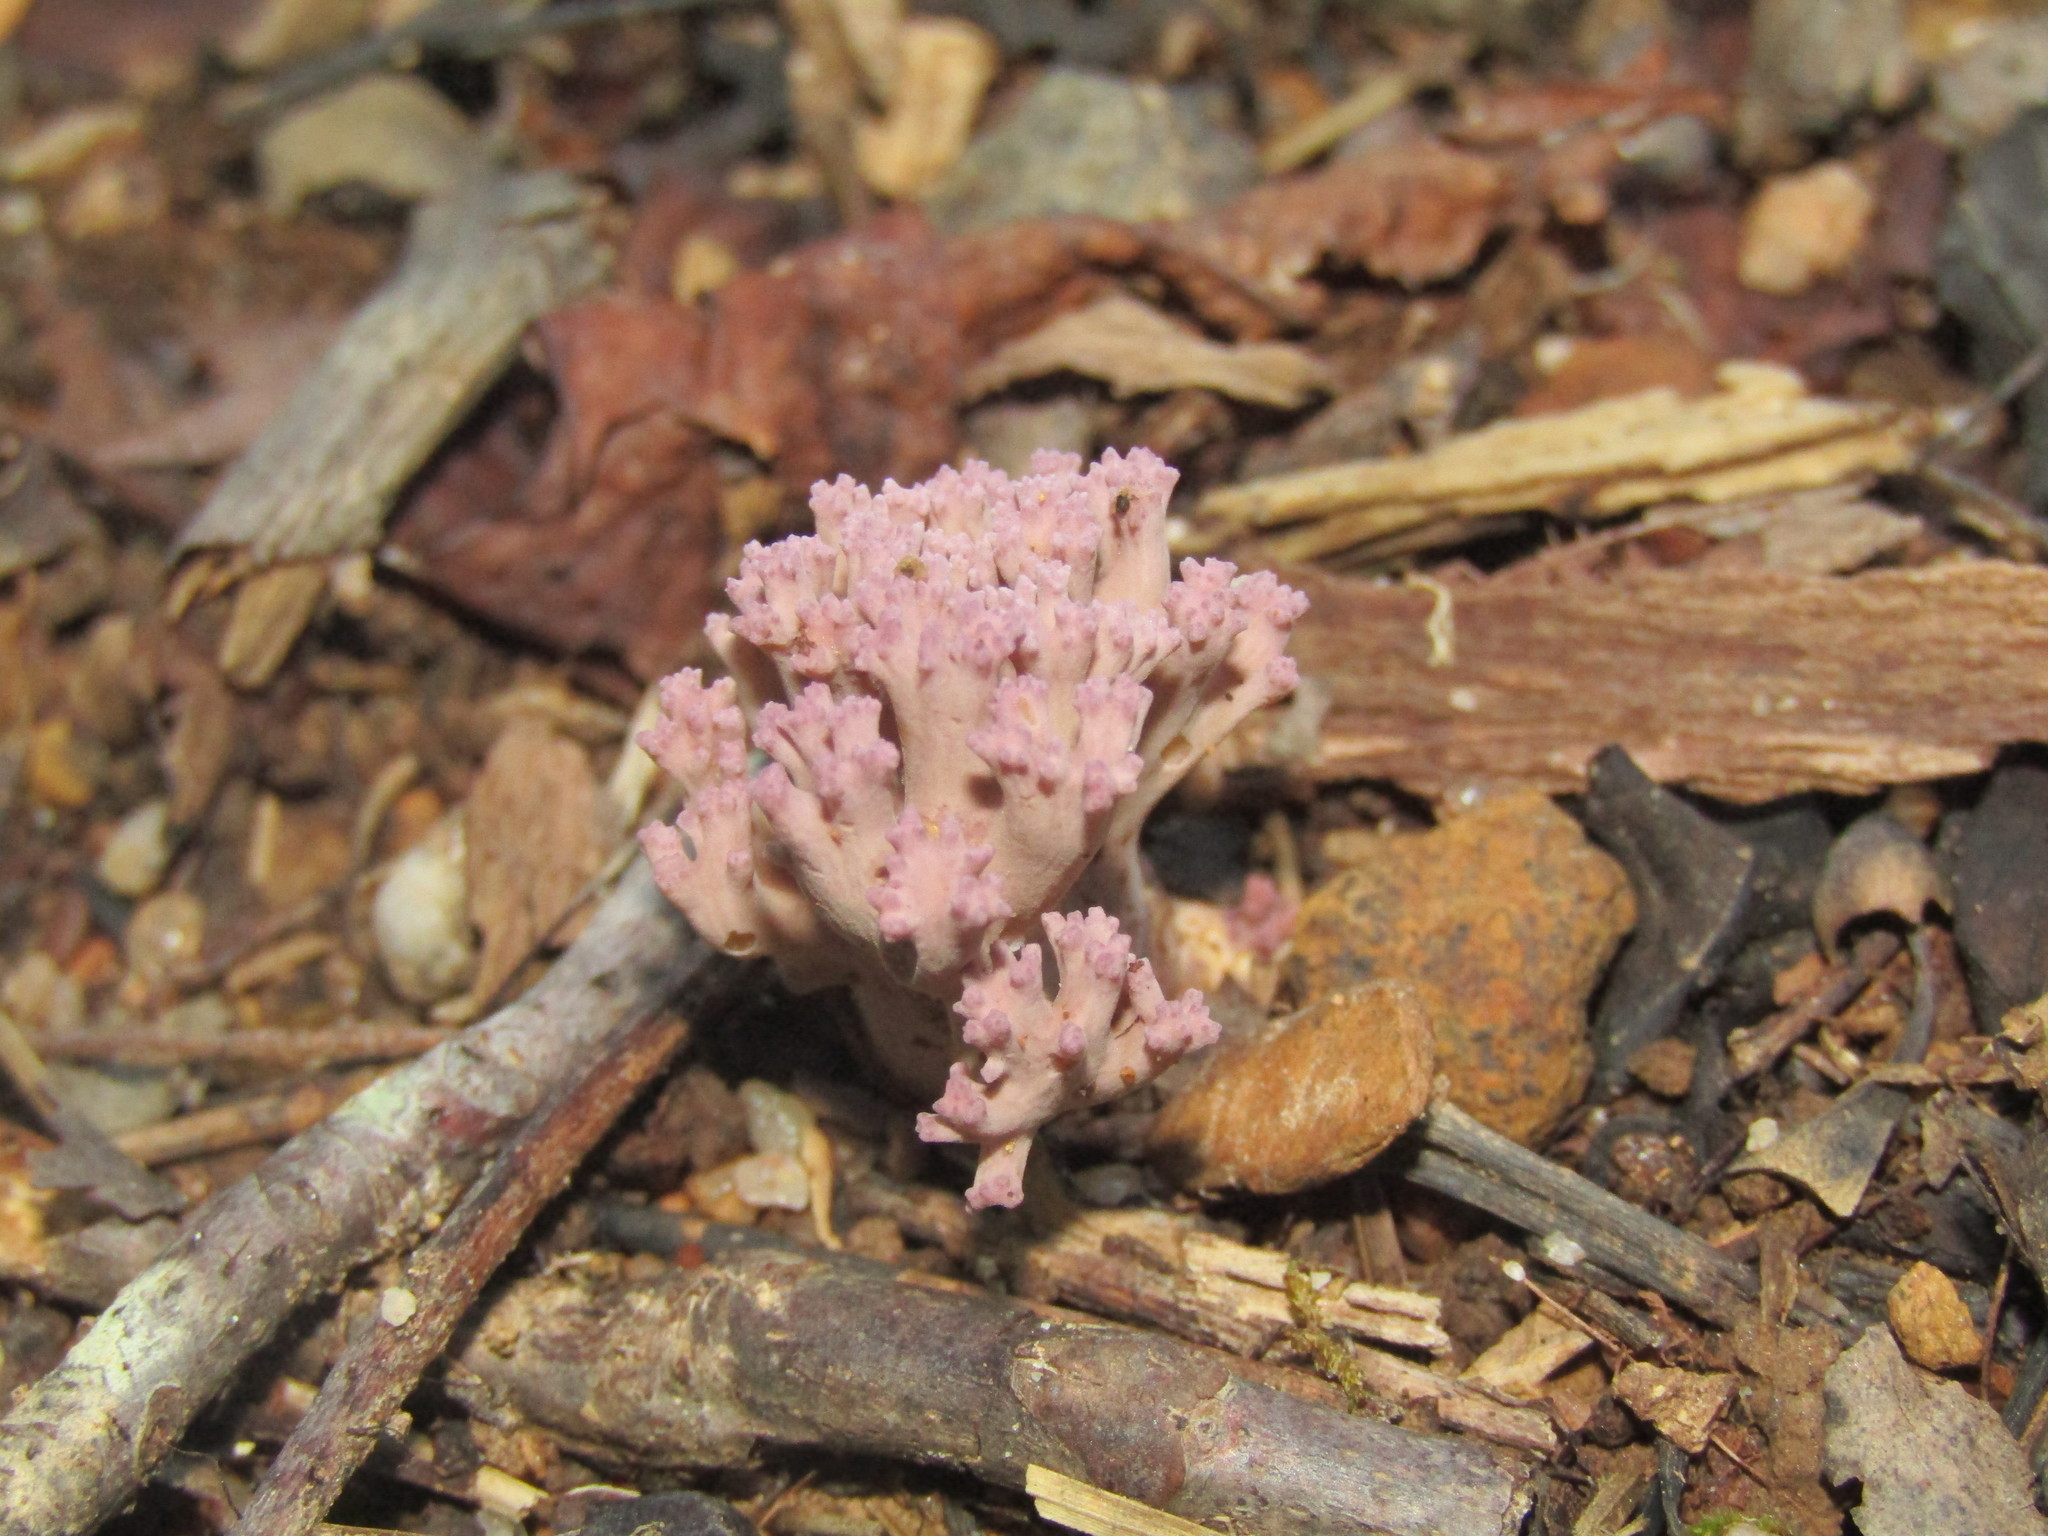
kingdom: Fungi
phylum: Basidiomycota
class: Agaricomycetes
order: Gomphales
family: Gomphaceae
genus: Ramaria
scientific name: Ramaria purpureopallida
